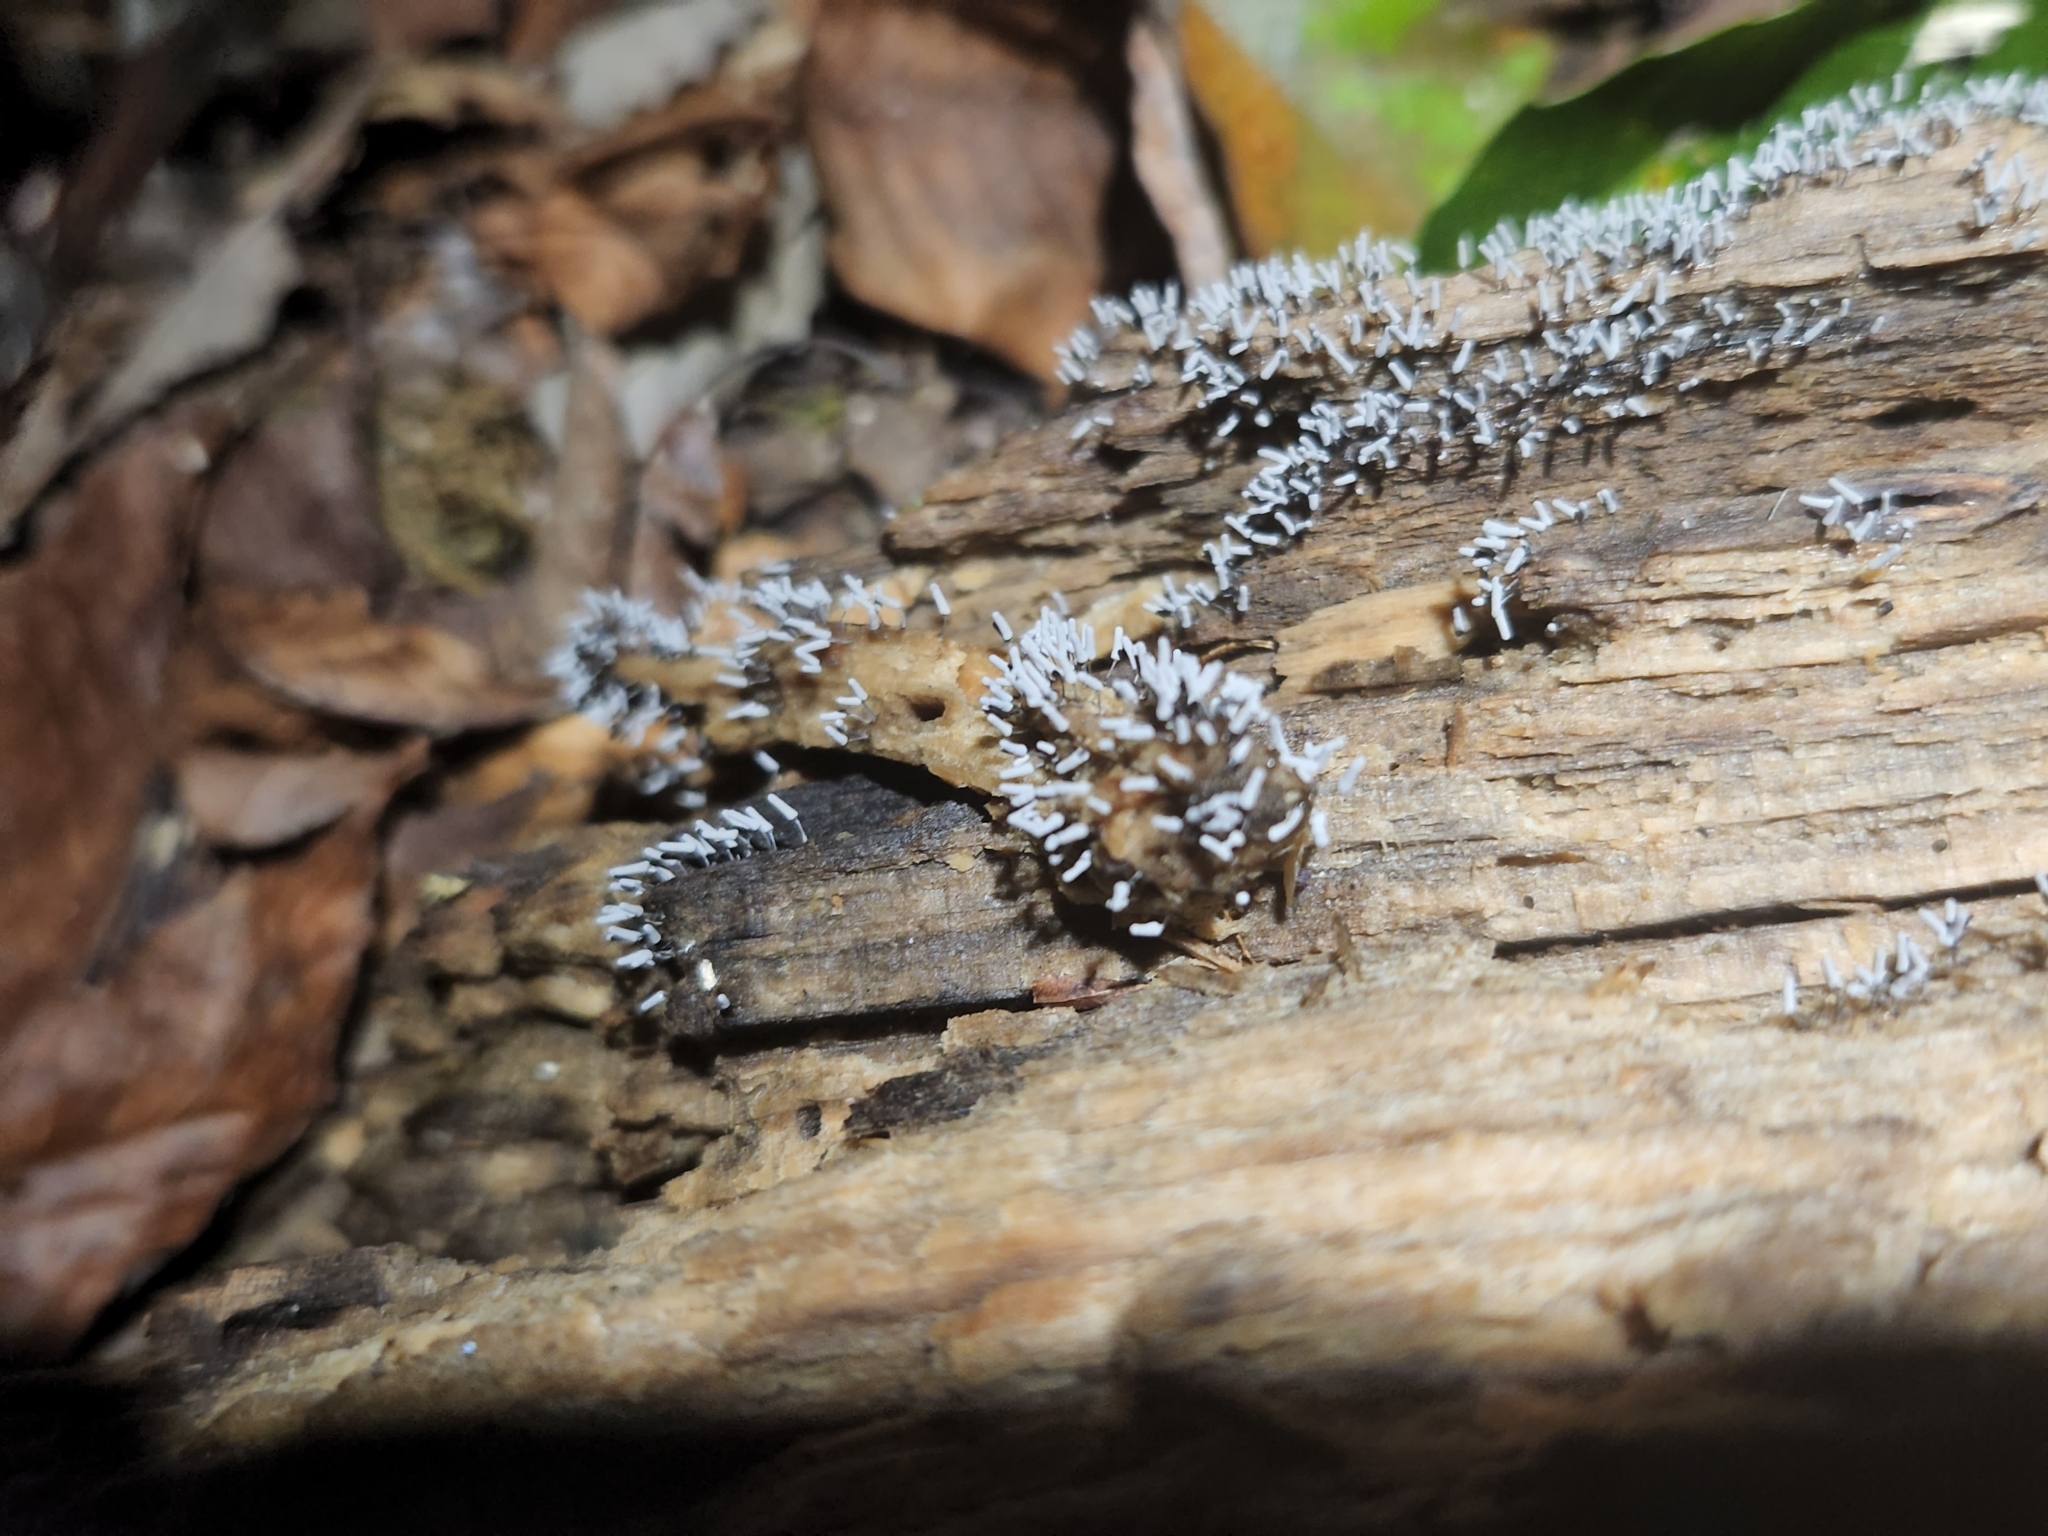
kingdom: Protozoa
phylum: Mycetozoa
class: Myxomycetes
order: Trichiales
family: Arcyriaceae
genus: Arcyria
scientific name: Arcyria cinerea
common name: White carnival candy slime mold
